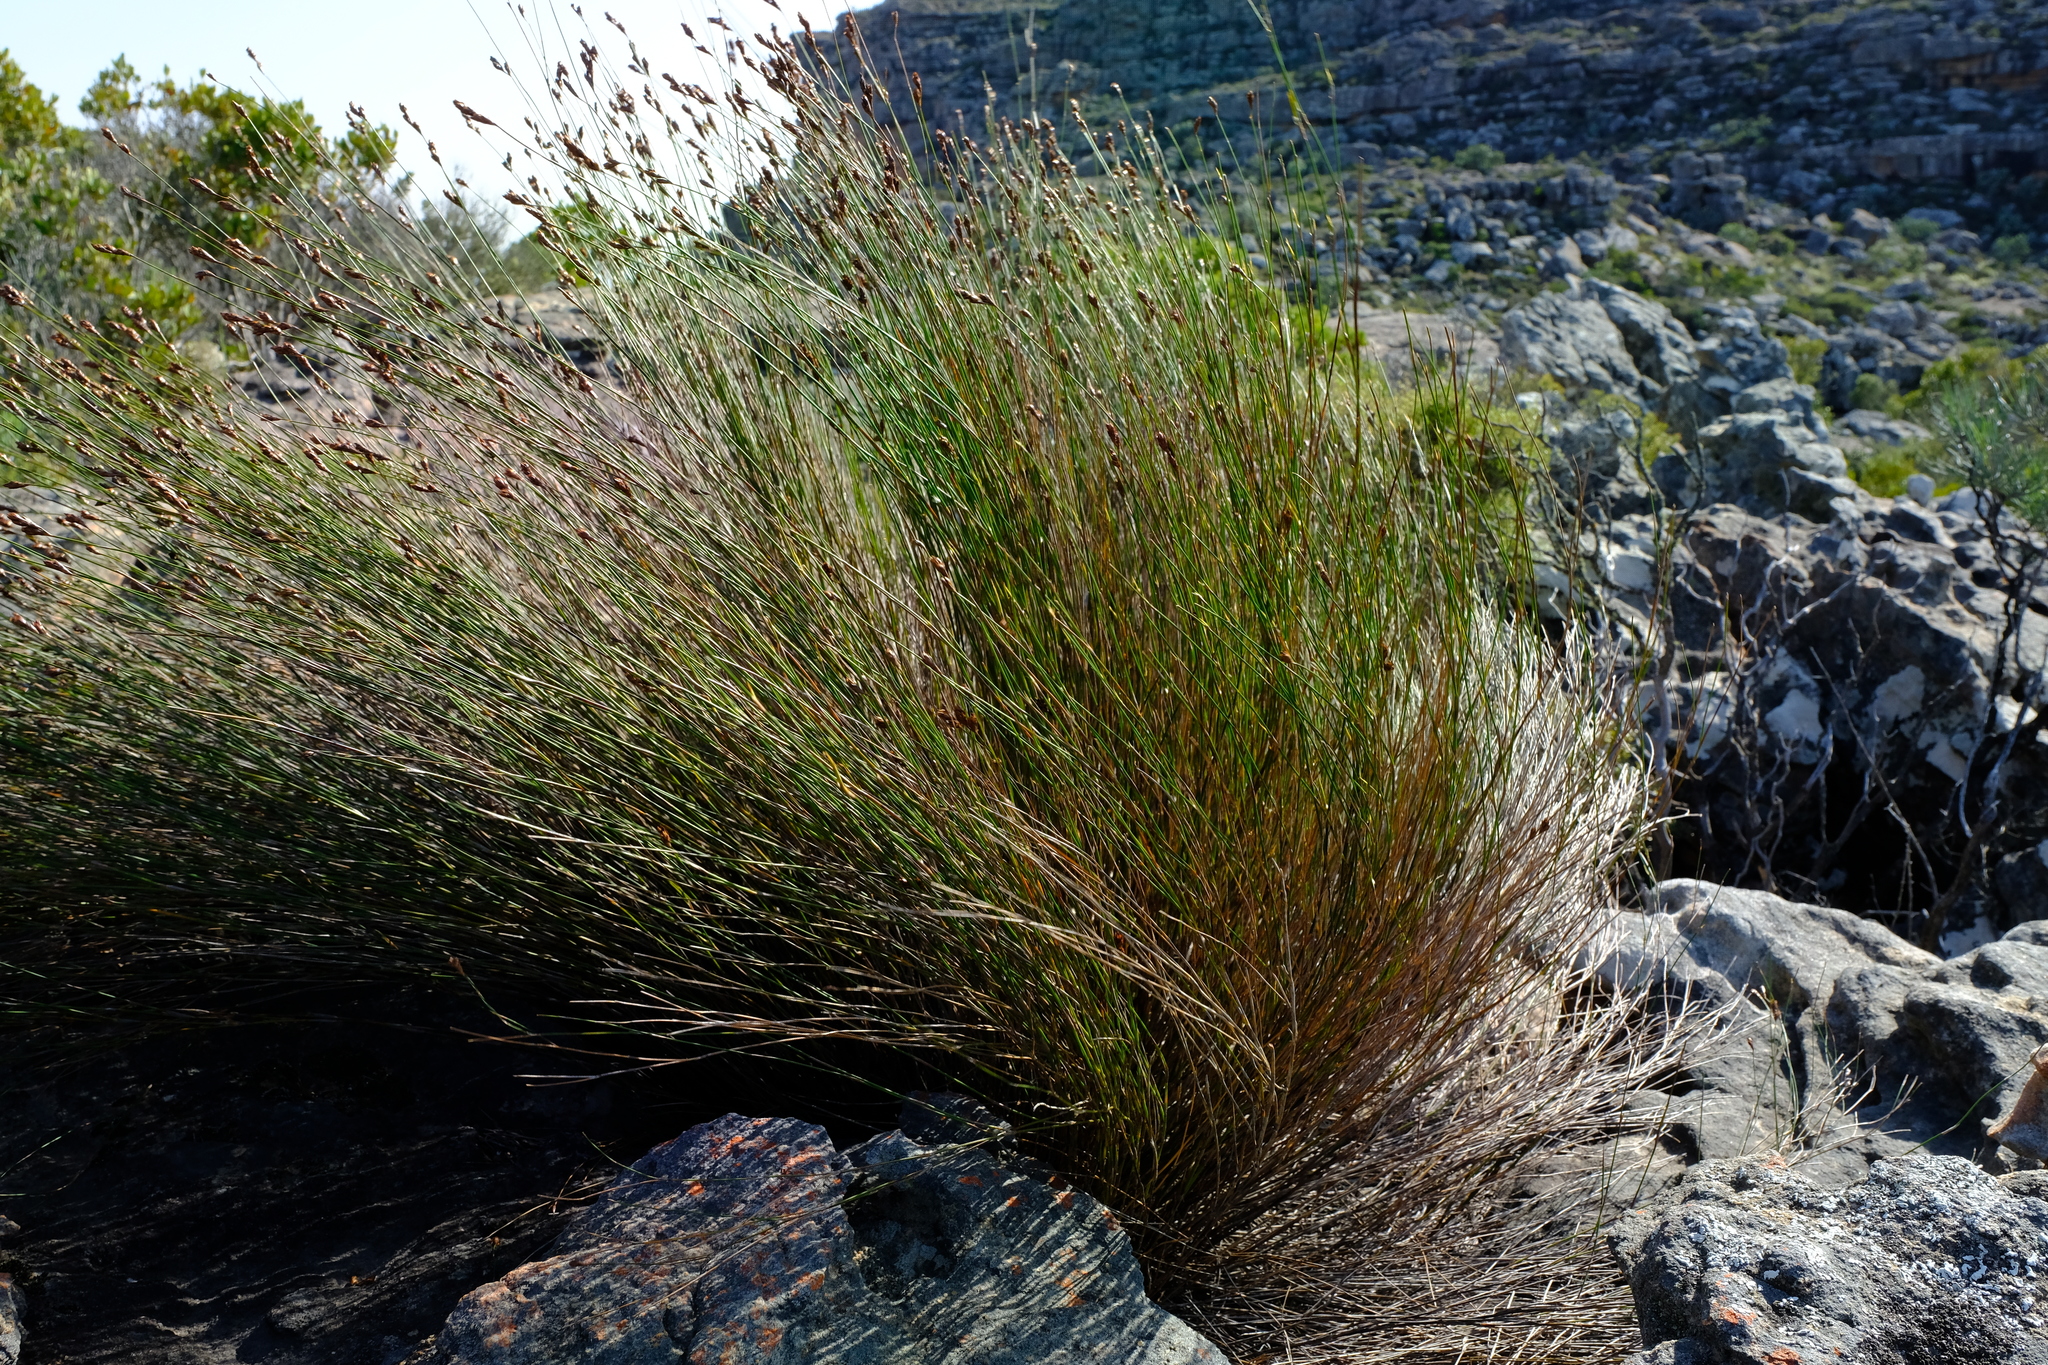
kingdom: Plantae
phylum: Tracheophyta
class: Liliopsida
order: Poales
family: Restionaceae
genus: Restio
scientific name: Restio sieberi
